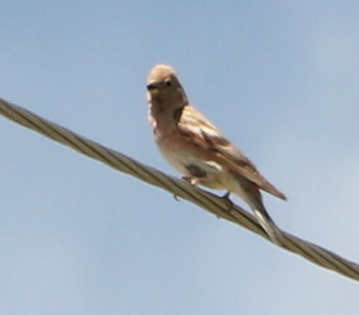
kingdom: Animalia
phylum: Chordata
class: Aves
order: Passeriformes
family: Fringillidae
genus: Bucanetes
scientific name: Bucanetes mongolicus
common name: Mongolian finch
